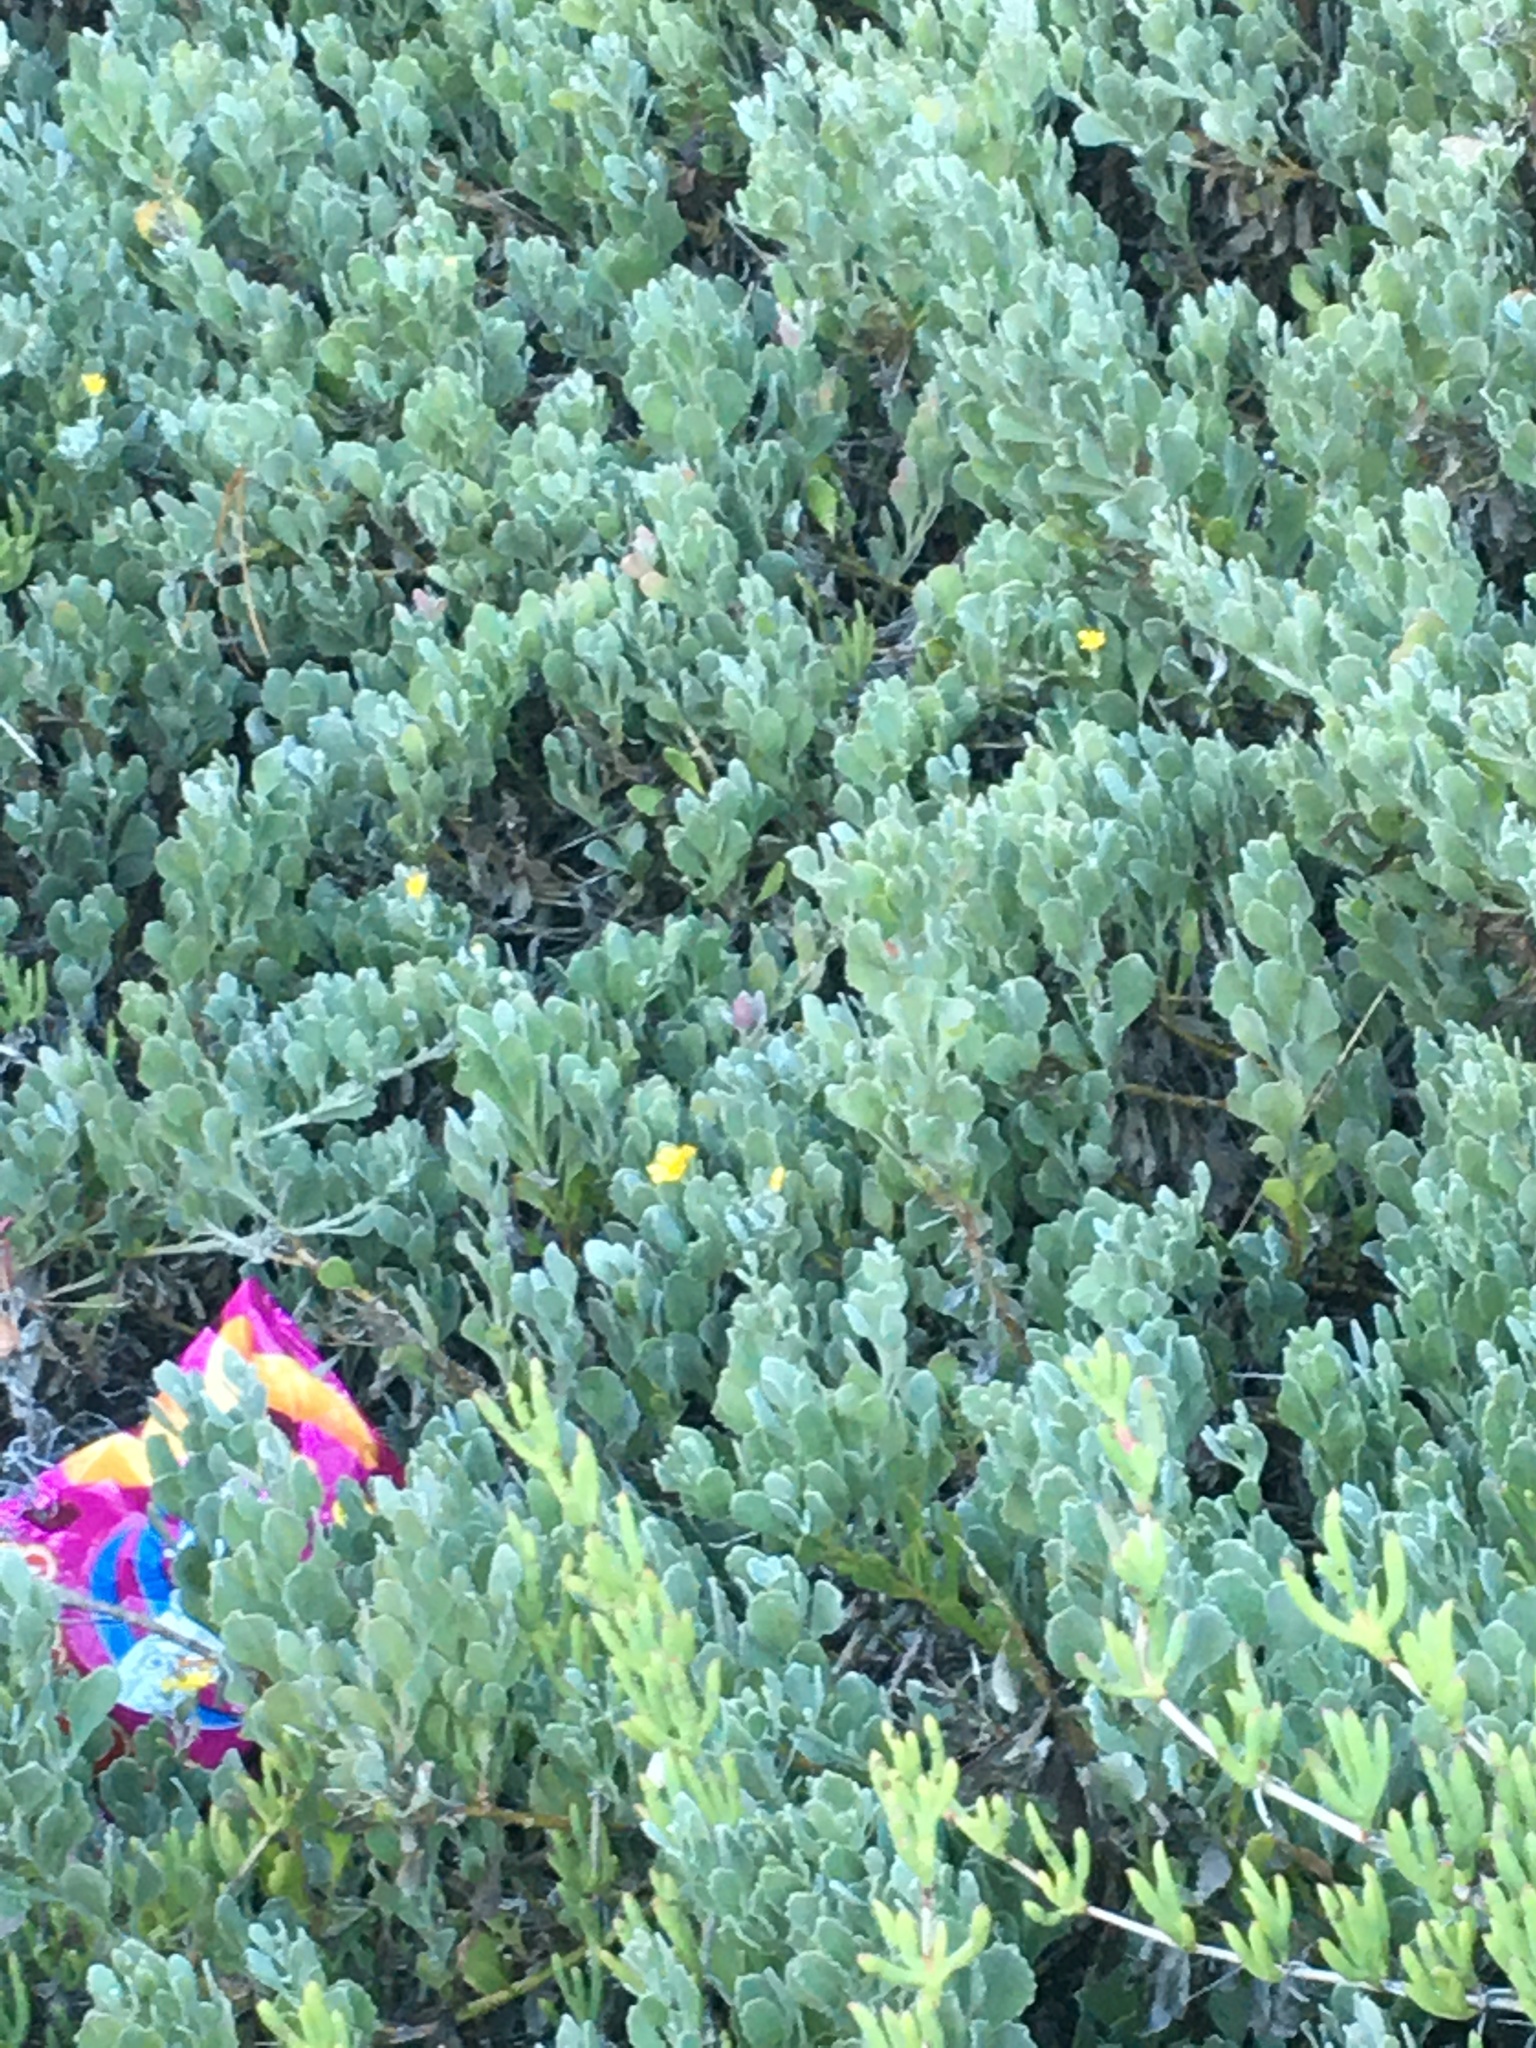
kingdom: Plantae
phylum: Tracheophyta
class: Magnoliopsida
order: Asterales
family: Asteraceae
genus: Osteospermum
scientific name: Osteospermum incanum
